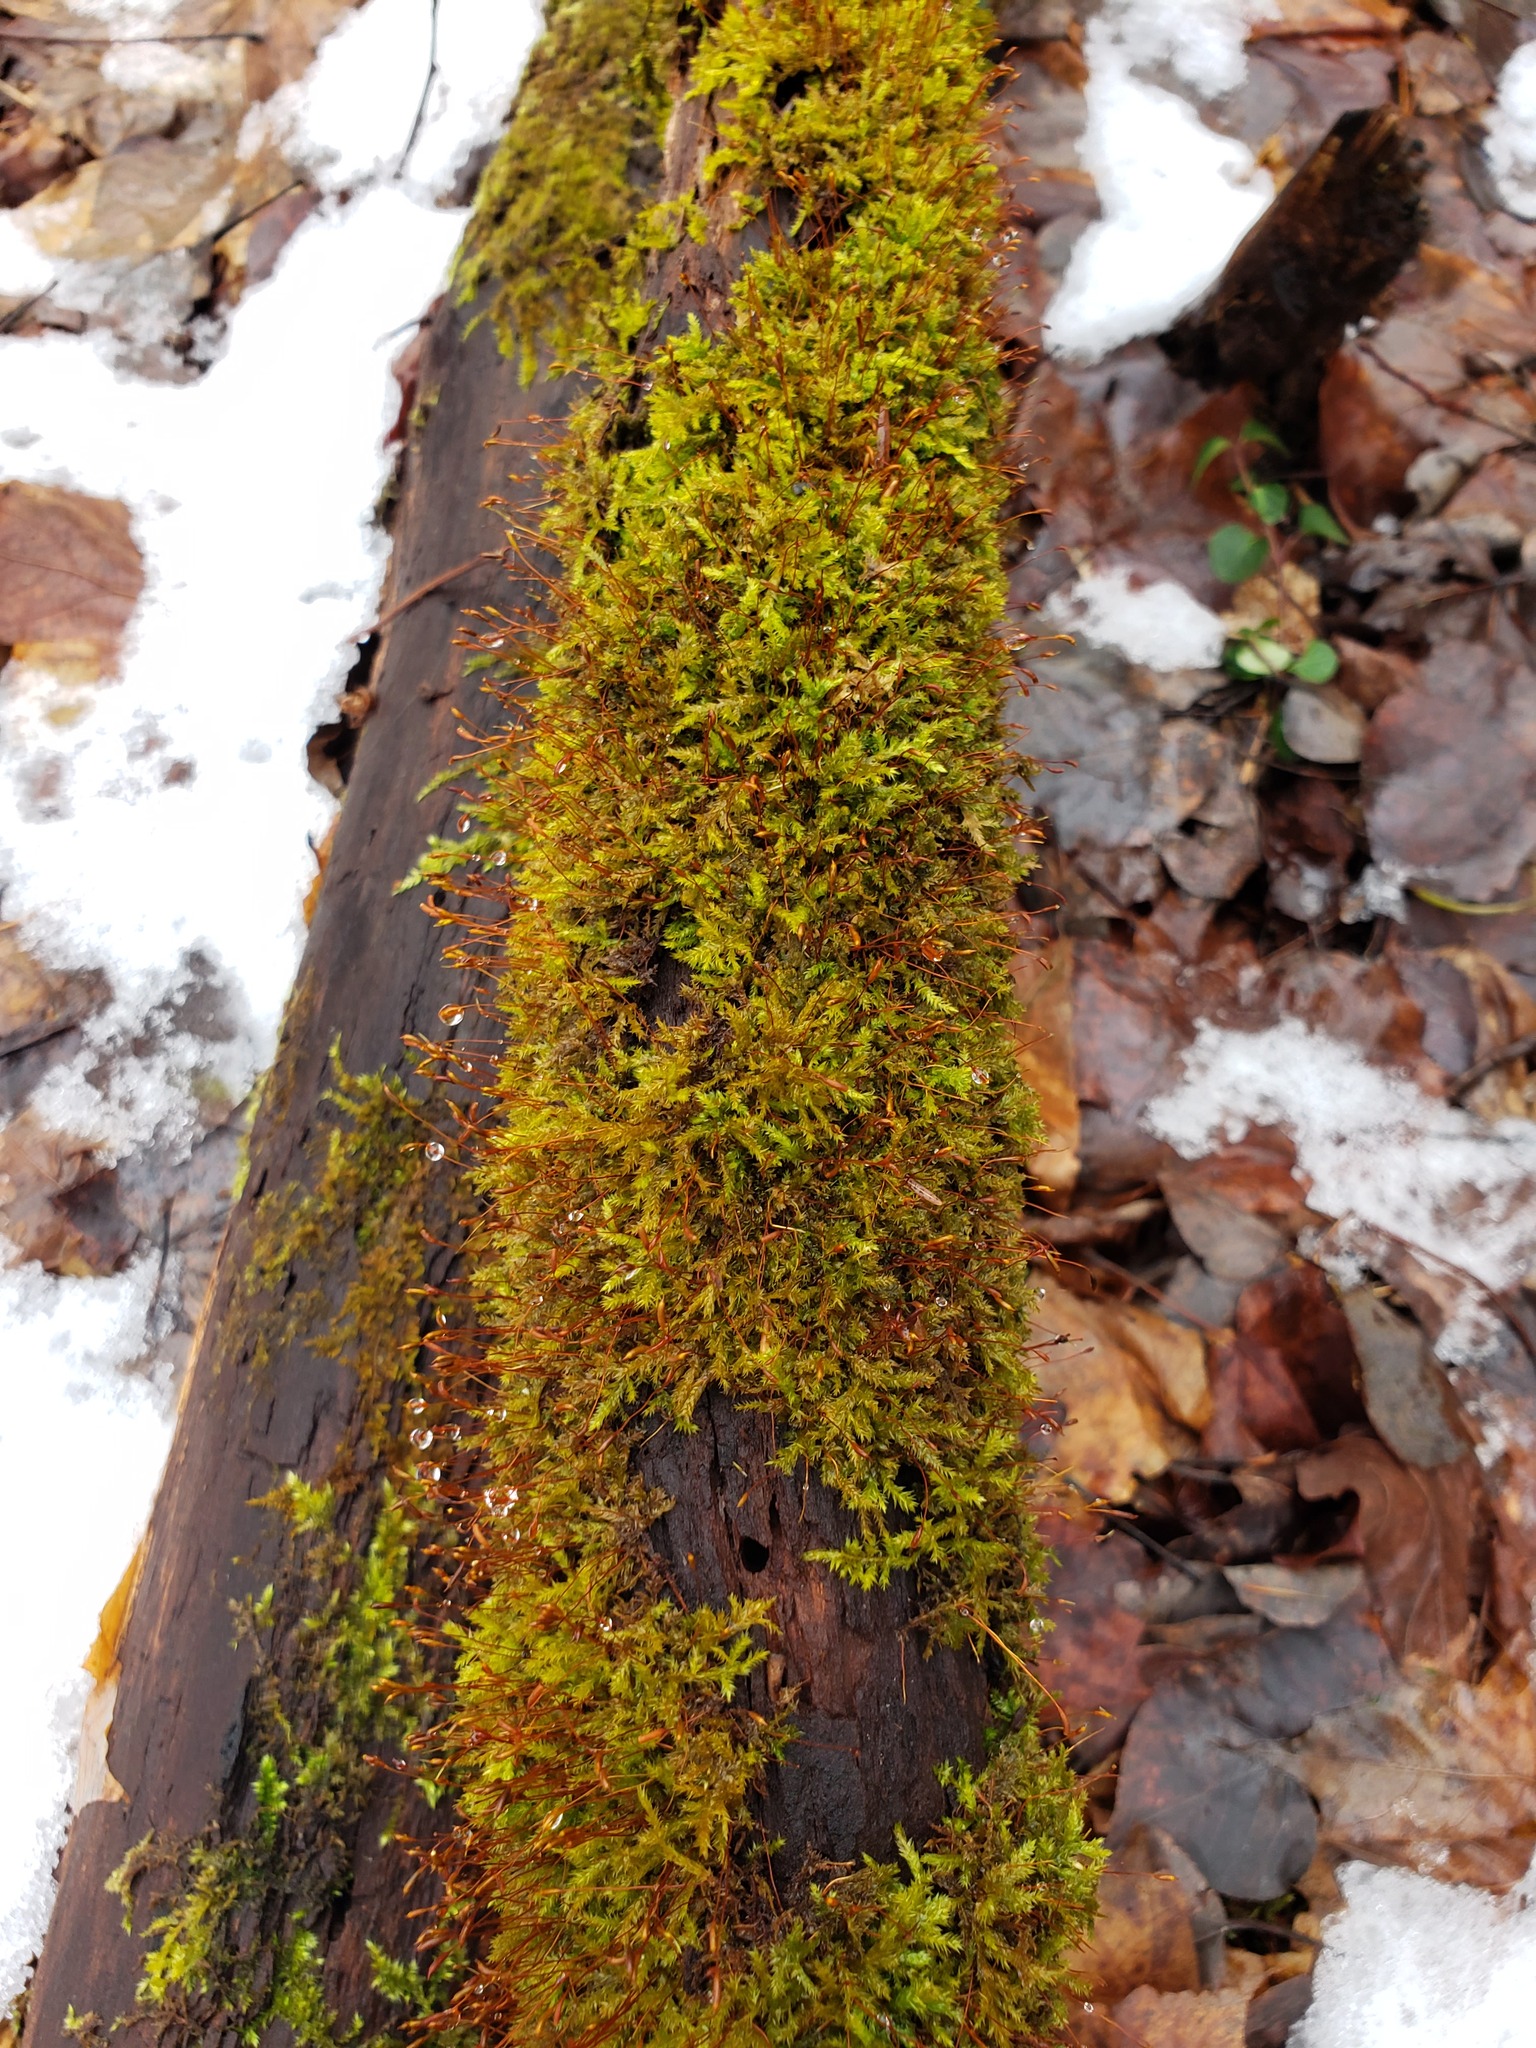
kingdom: Plantae
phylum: Bryophyta
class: Bryopsida
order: Hypnales
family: Callicladiaceae
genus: Callicladium
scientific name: Callicladium haldanianum
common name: Beautiful branch moss
